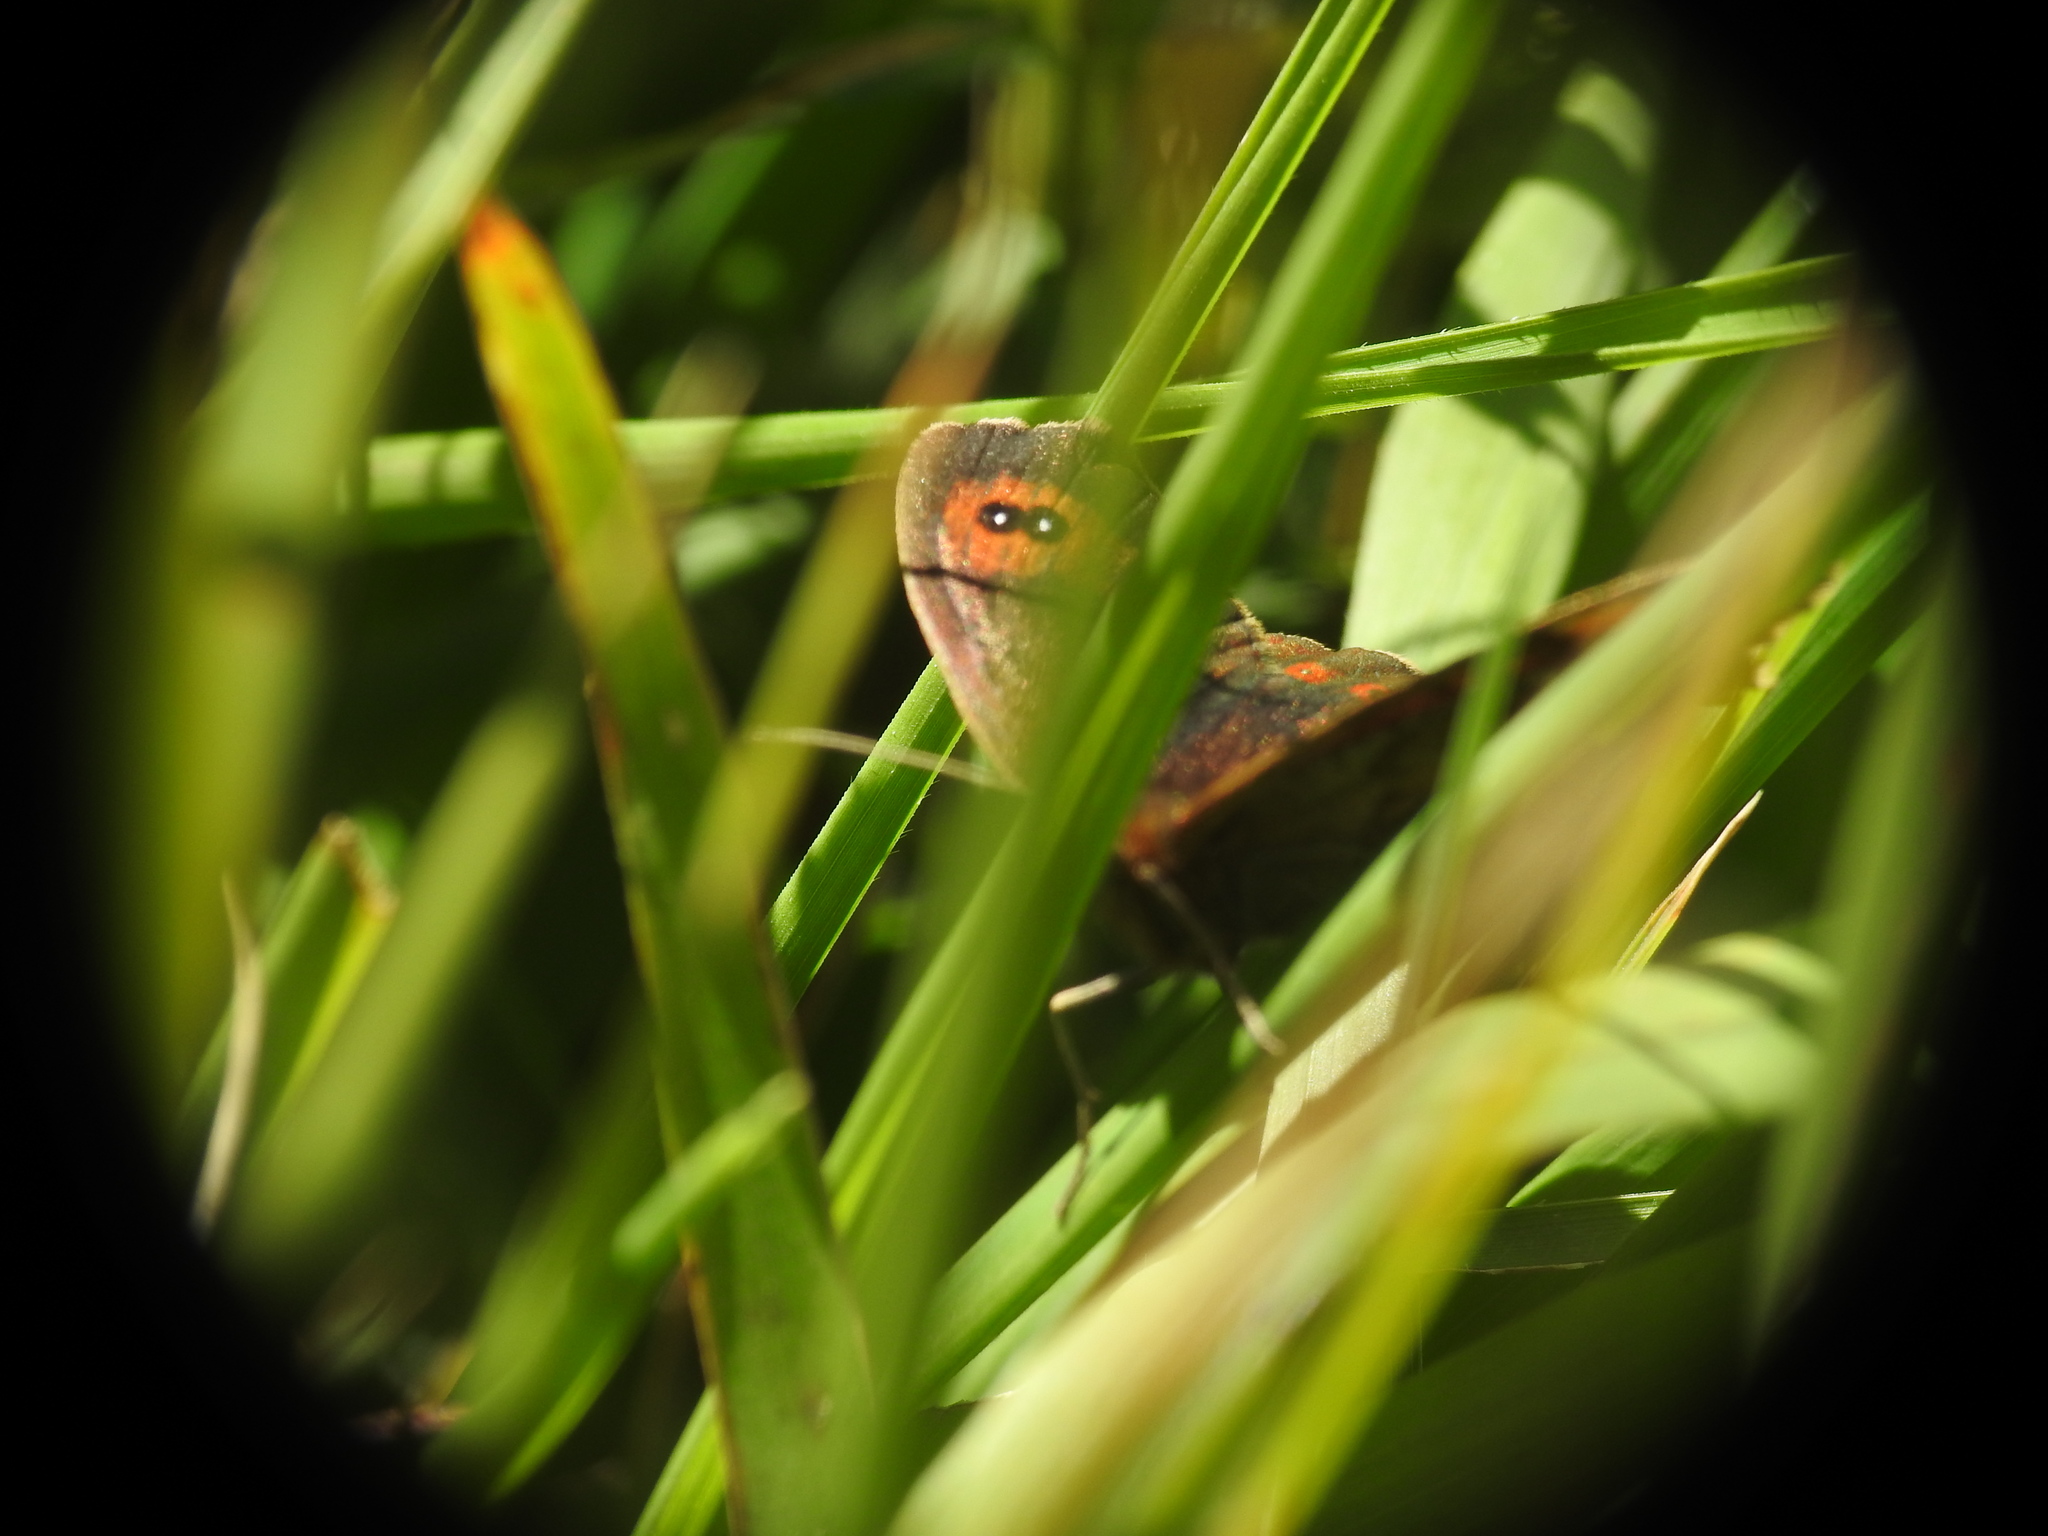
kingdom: Animalia
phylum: Arthropoda
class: Insecta
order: Lepidoptera
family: Nymphalidae
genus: Erebia
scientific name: Erebia aethiops
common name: Scotch argus
